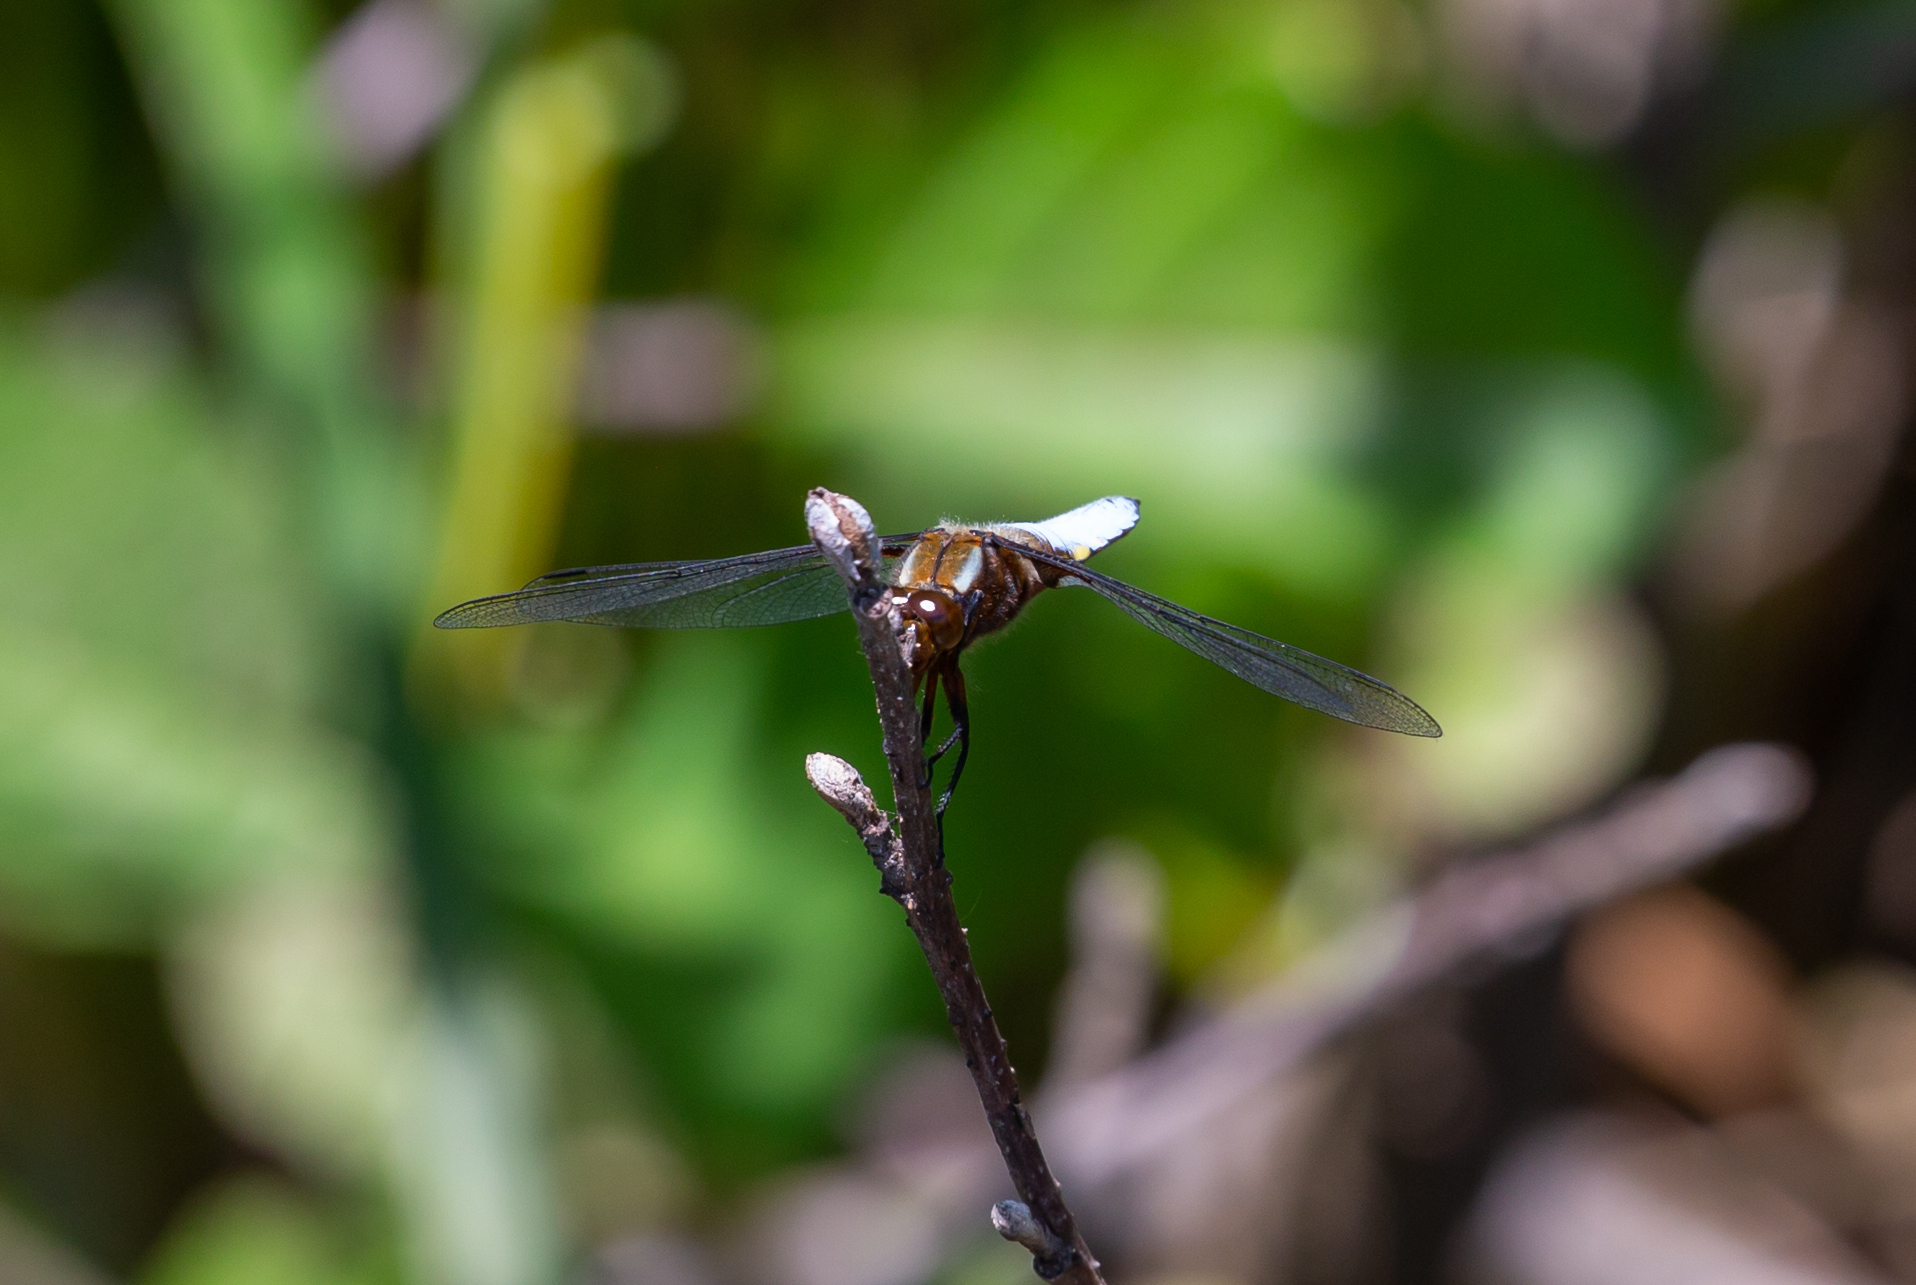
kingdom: Animalia
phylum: Arthropoda
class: Insecta
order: Odonata
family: Libellulidae
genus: Libellula
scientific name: Libellula depressa
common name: Broad-bodied chaser
